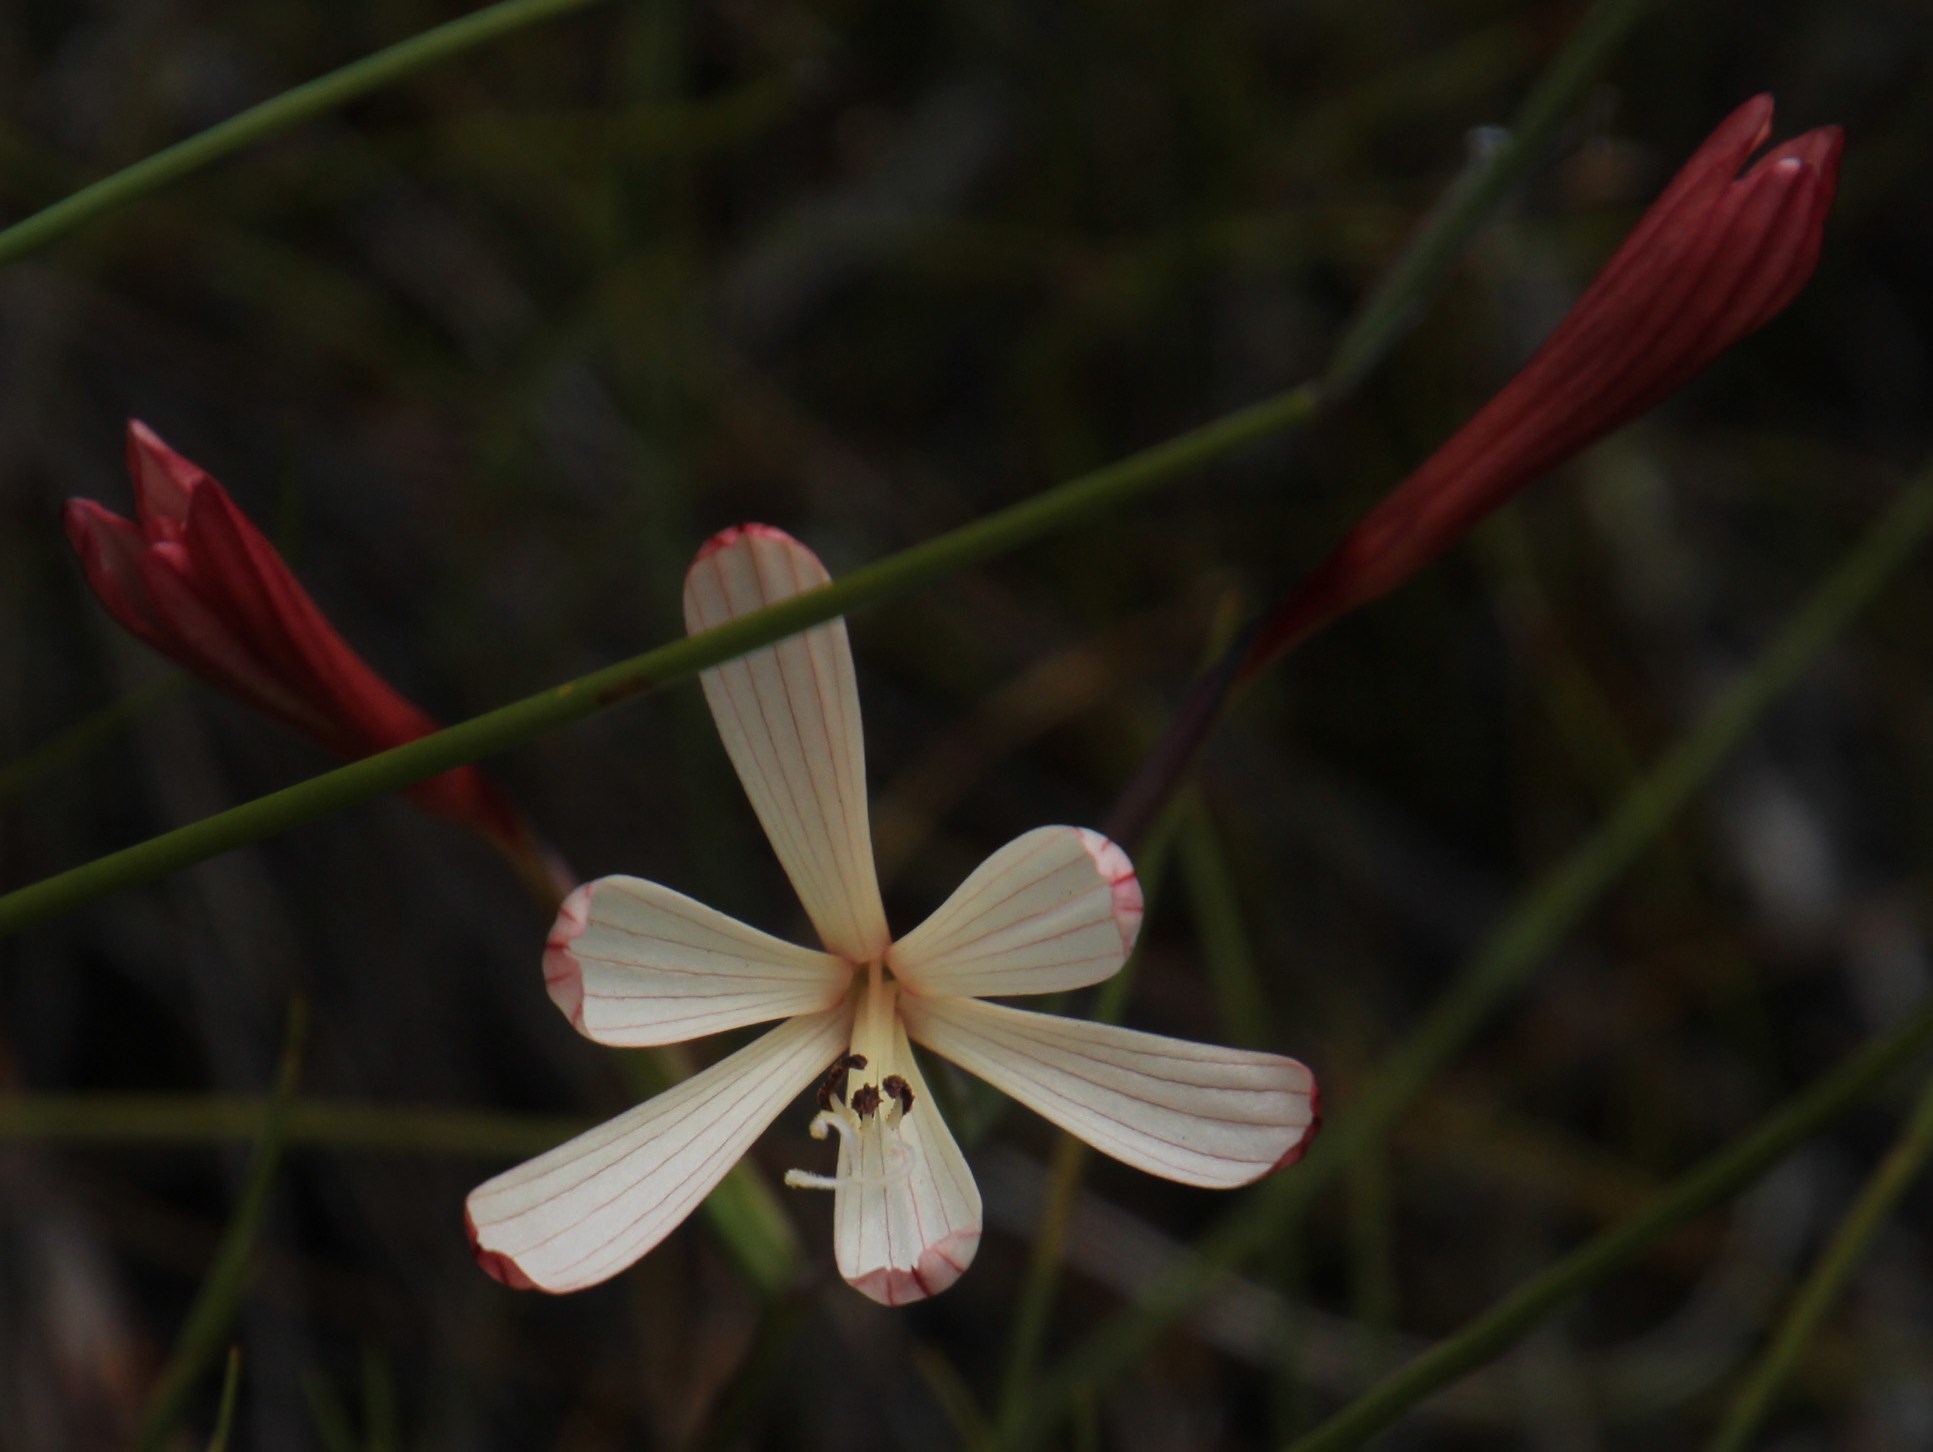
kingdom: Plantae
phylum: Tracheophyta
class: Liliopsida
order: Asparagales
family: Iridaceae
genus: Geissorhiza
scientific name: Geissorhiza confusa
